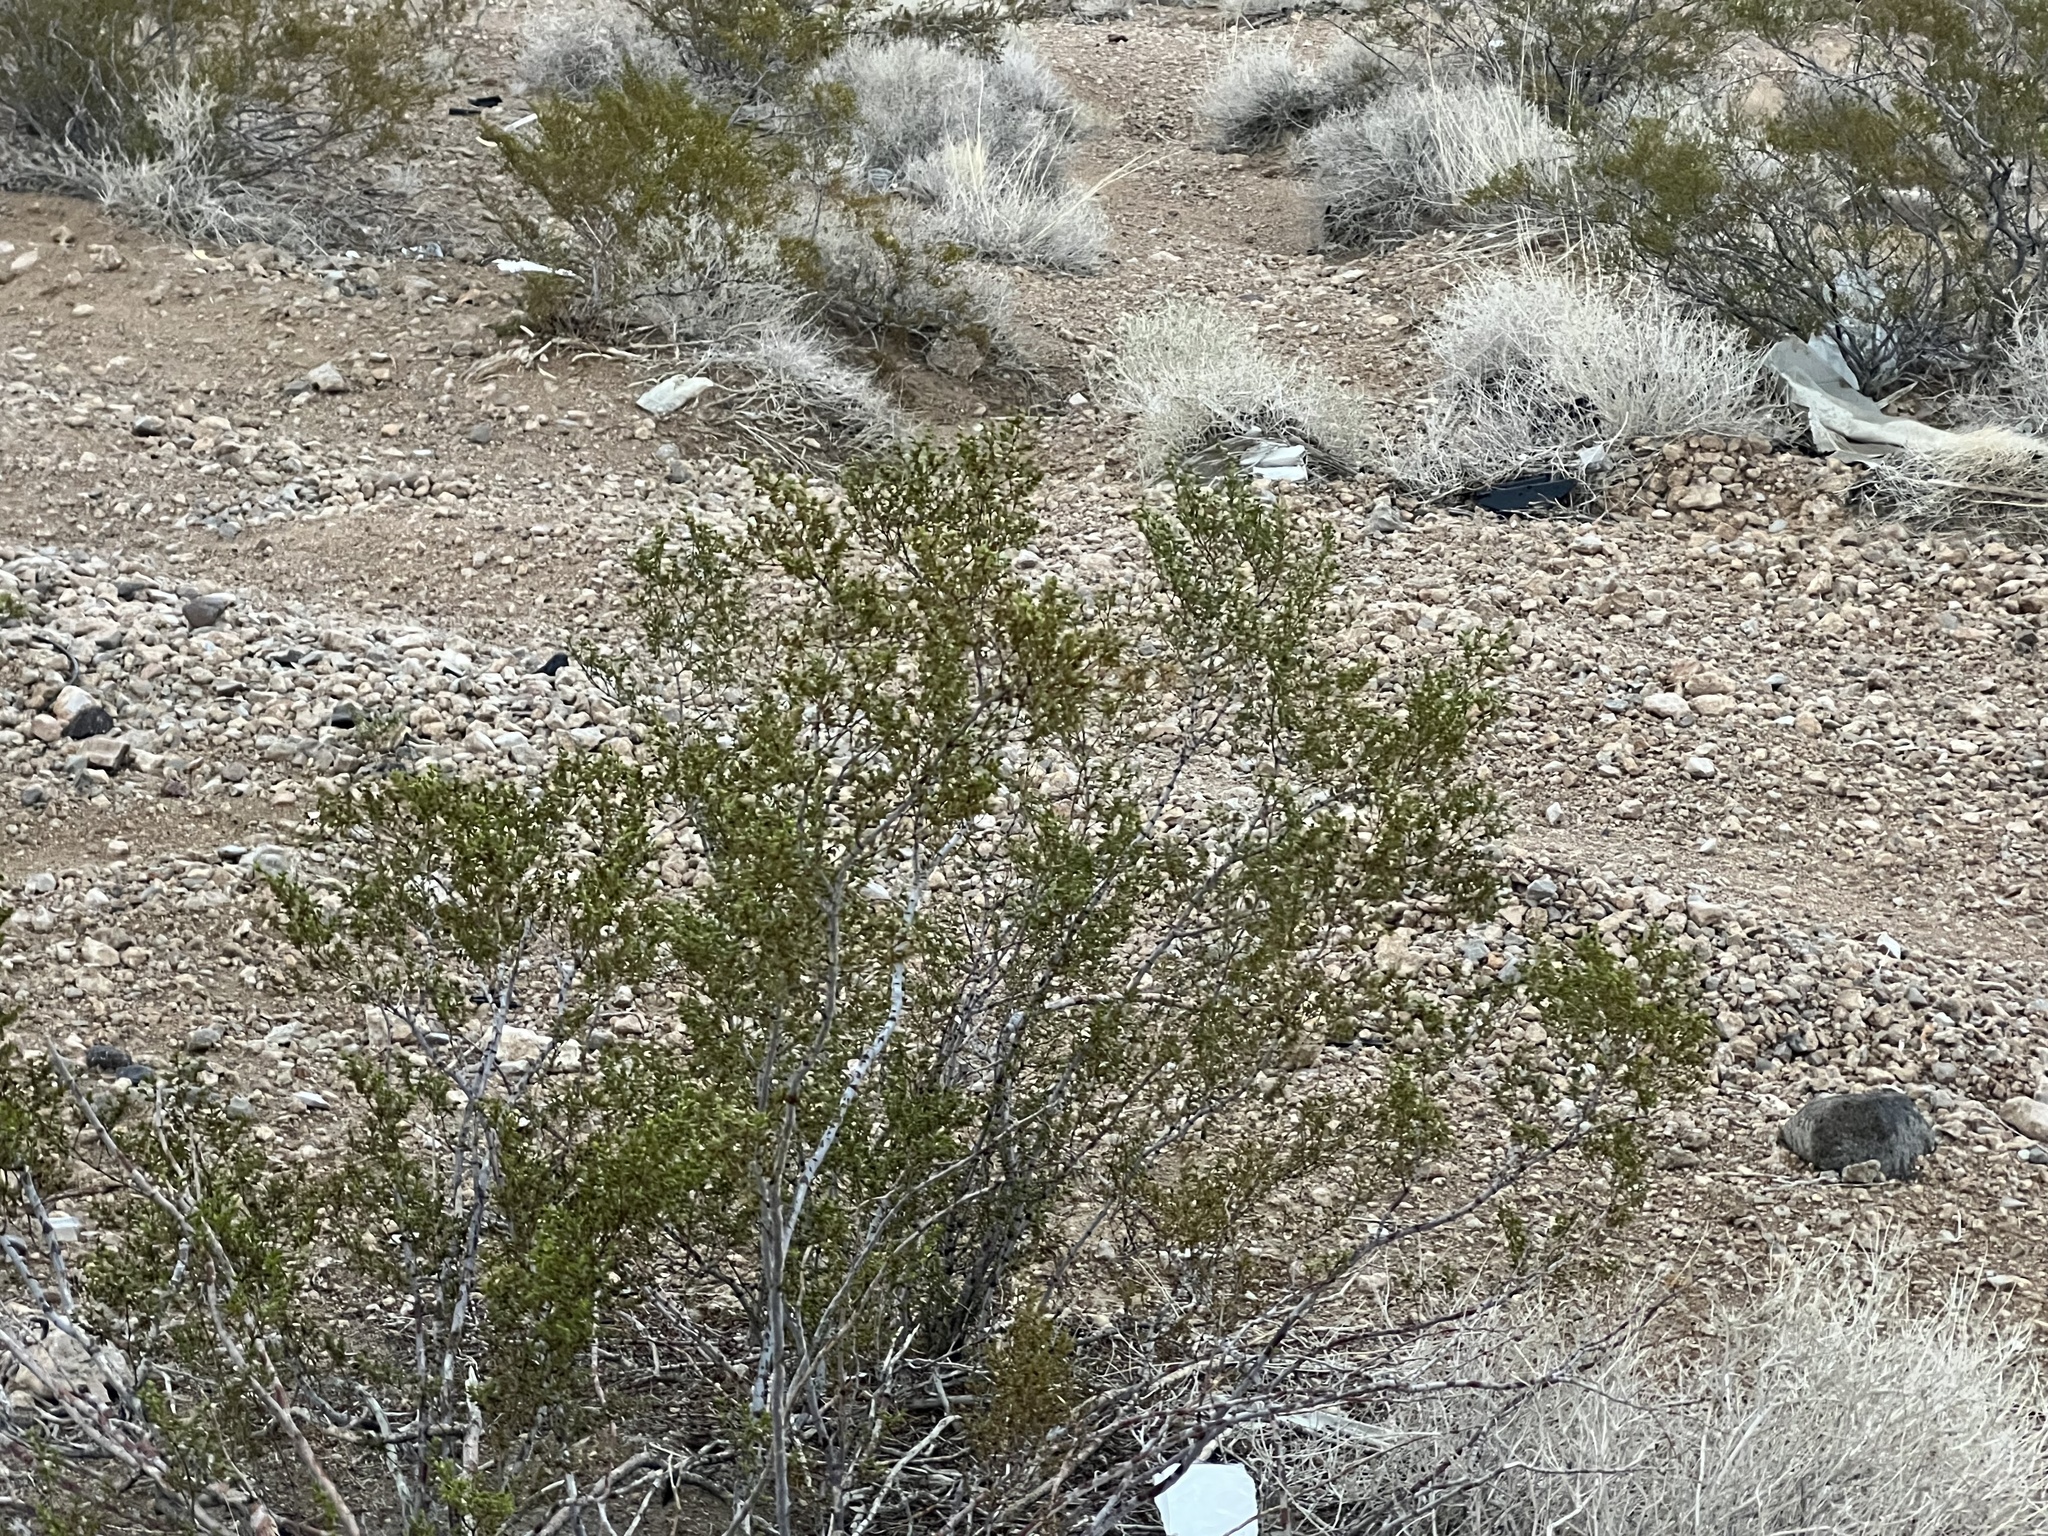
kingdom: Plantae
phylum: Tracheophyta
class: Magnoliopsida
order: Zygophyllales
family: Zygophyllaceae
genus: Larrea
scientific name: Larrea tridentata
